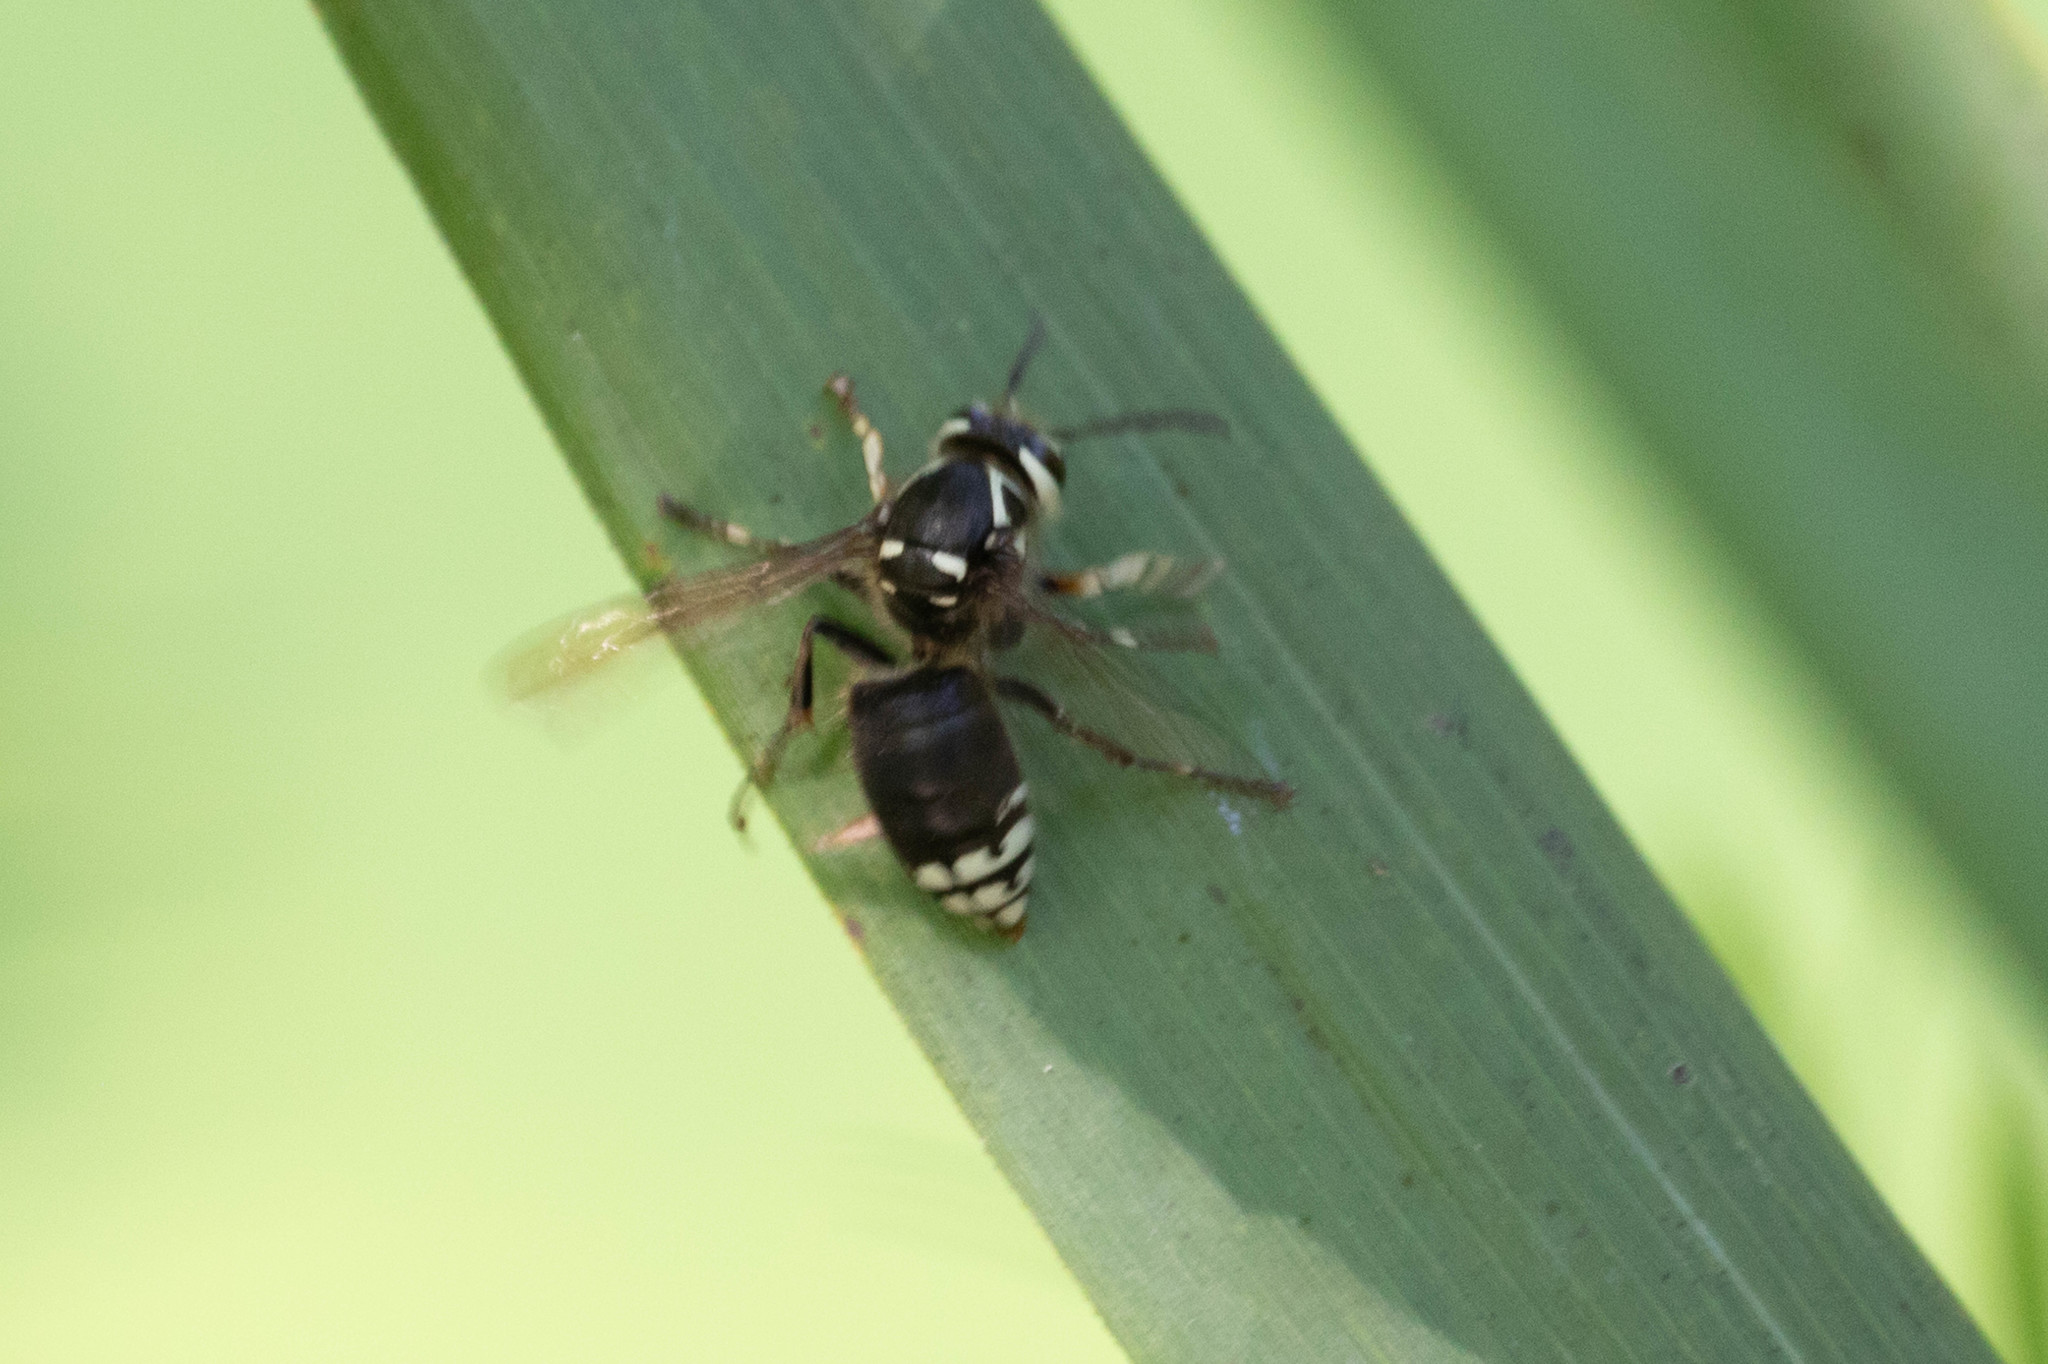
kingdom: Animalia
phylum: Arthropoda
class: Insecta
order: Hymenoptera
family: Vespidae
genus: Dolichovespula
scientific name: Dolichovespula maculata
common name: Bald-faced hornet
